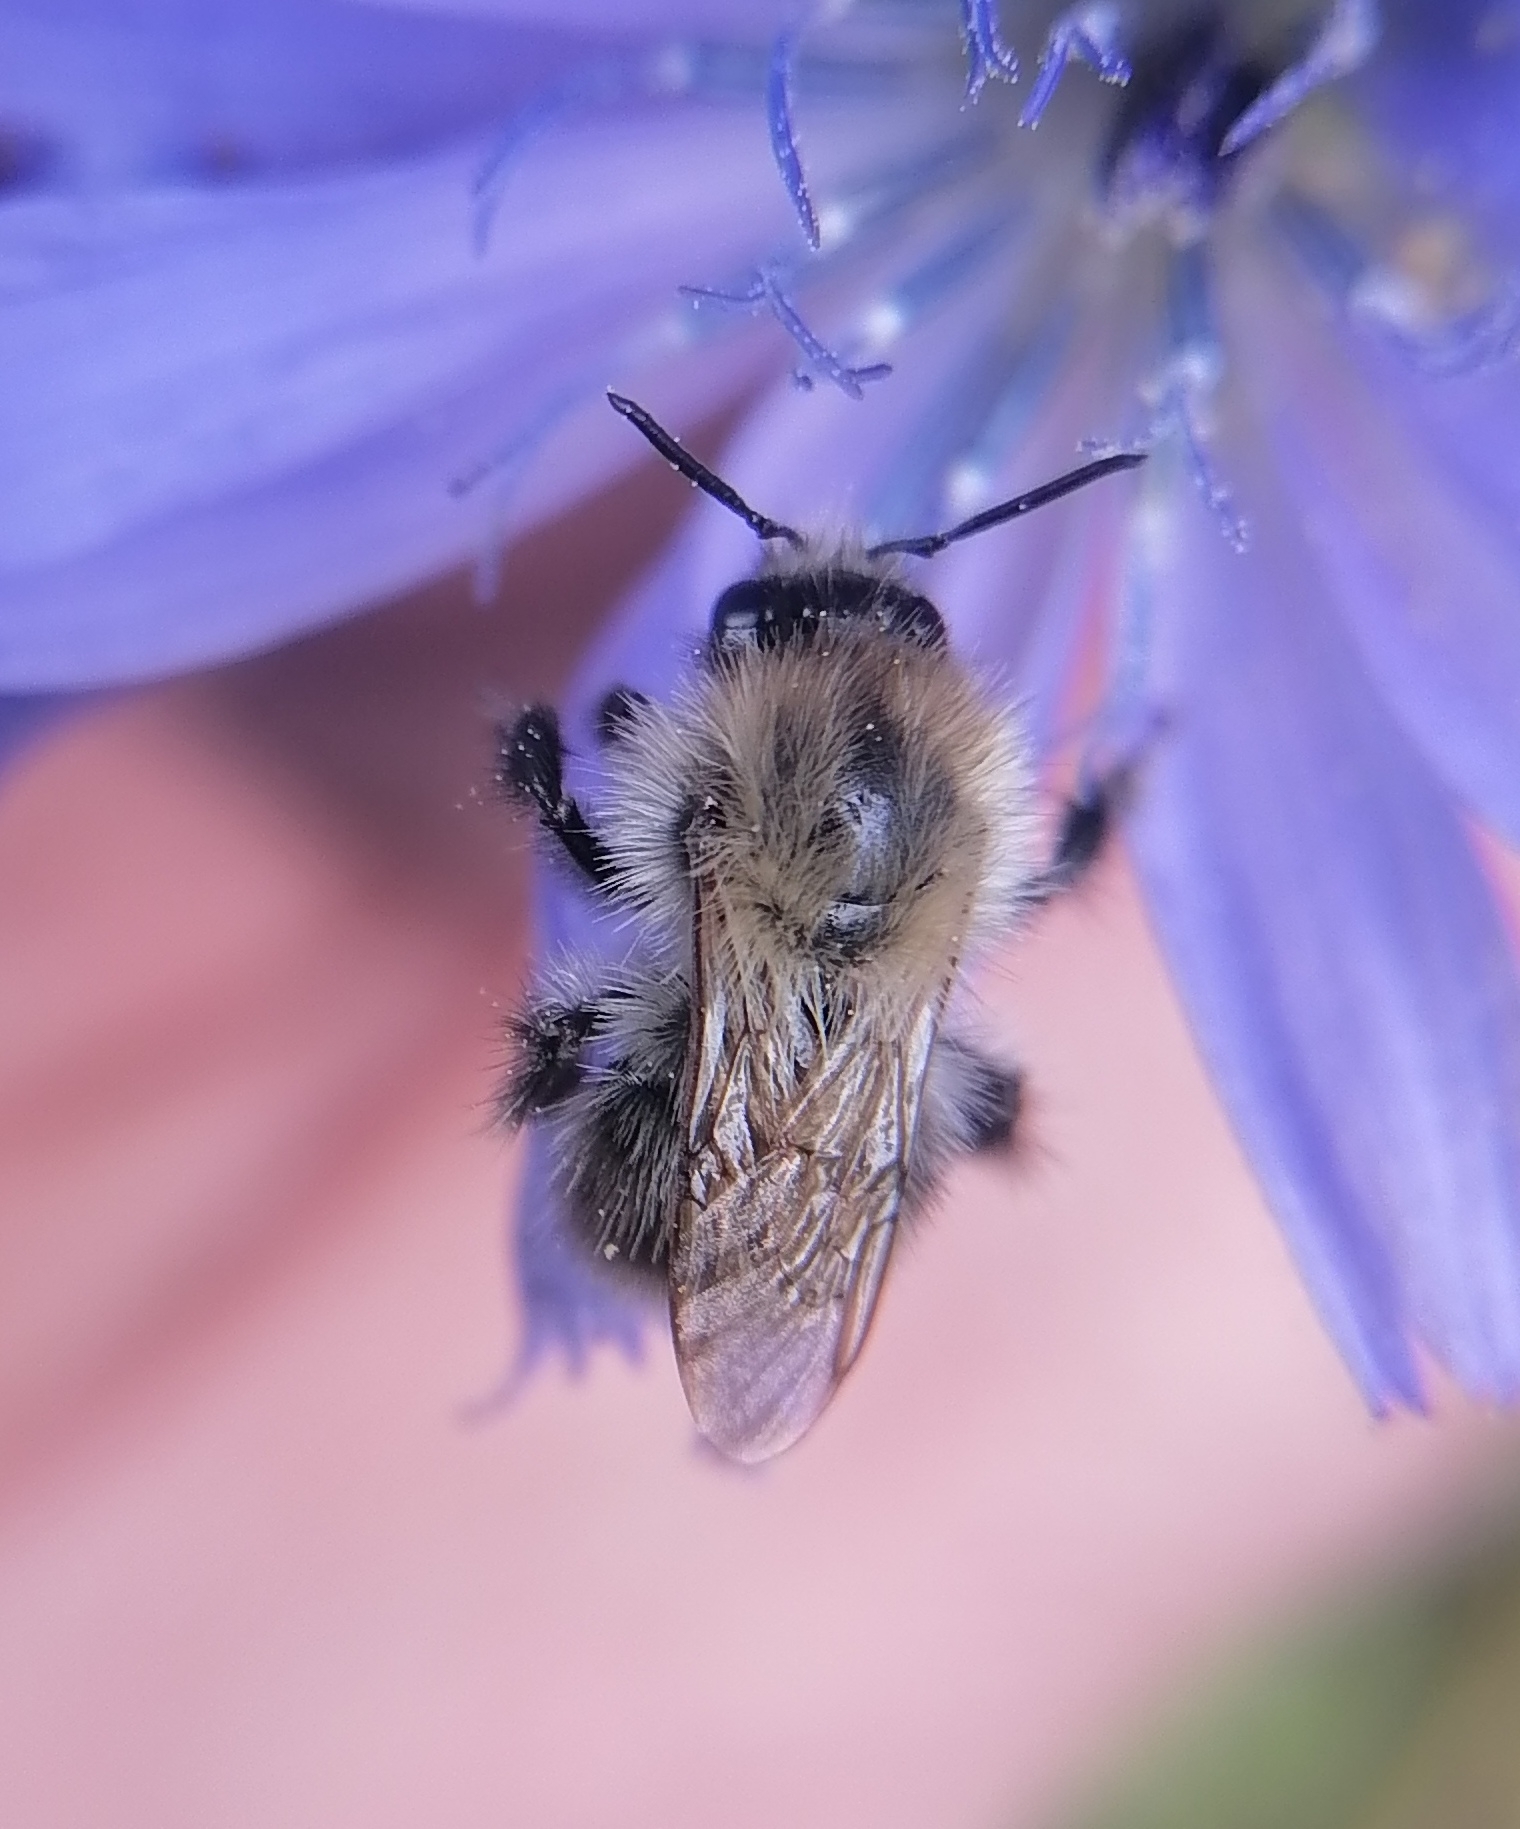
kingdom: Animalia
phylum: Arthropoda
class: Insecta
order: Hymenoptera
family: Apidae
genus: Bombus
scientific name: Bombus pascuorum
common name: Common carder bee
